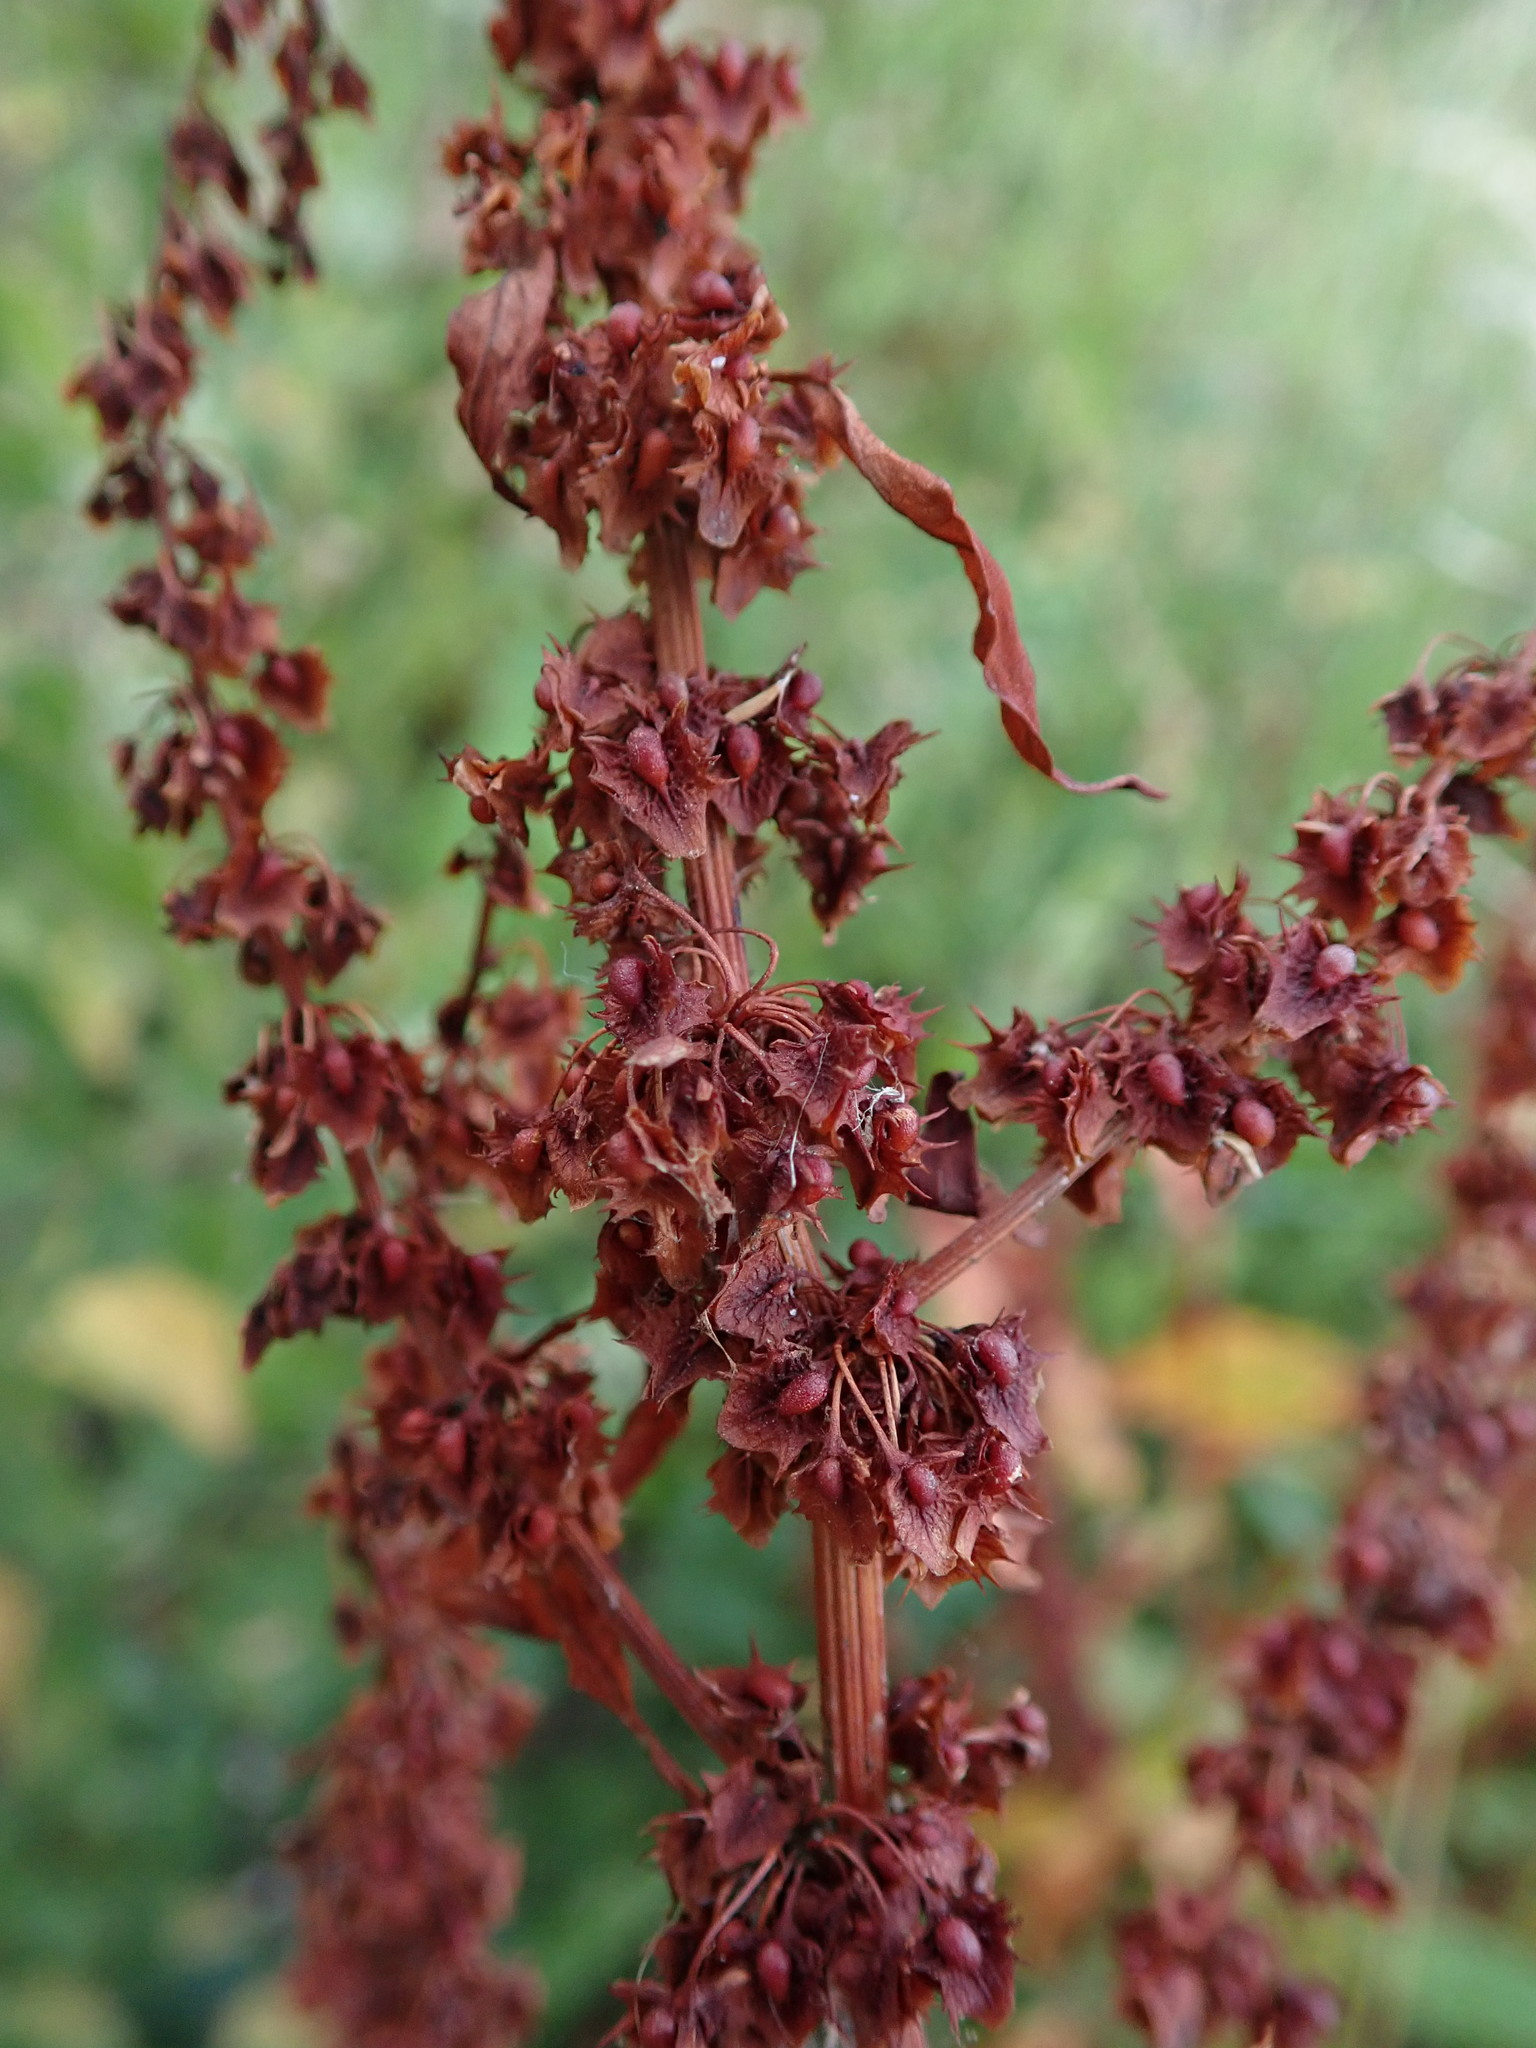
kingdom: Plantae
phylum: Tracheophyta
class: Magnoliopsida
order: Caryophyllales
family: Polygonaceae
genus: Rumex
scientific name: Rumex obtusifolius
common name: Bitter dock
